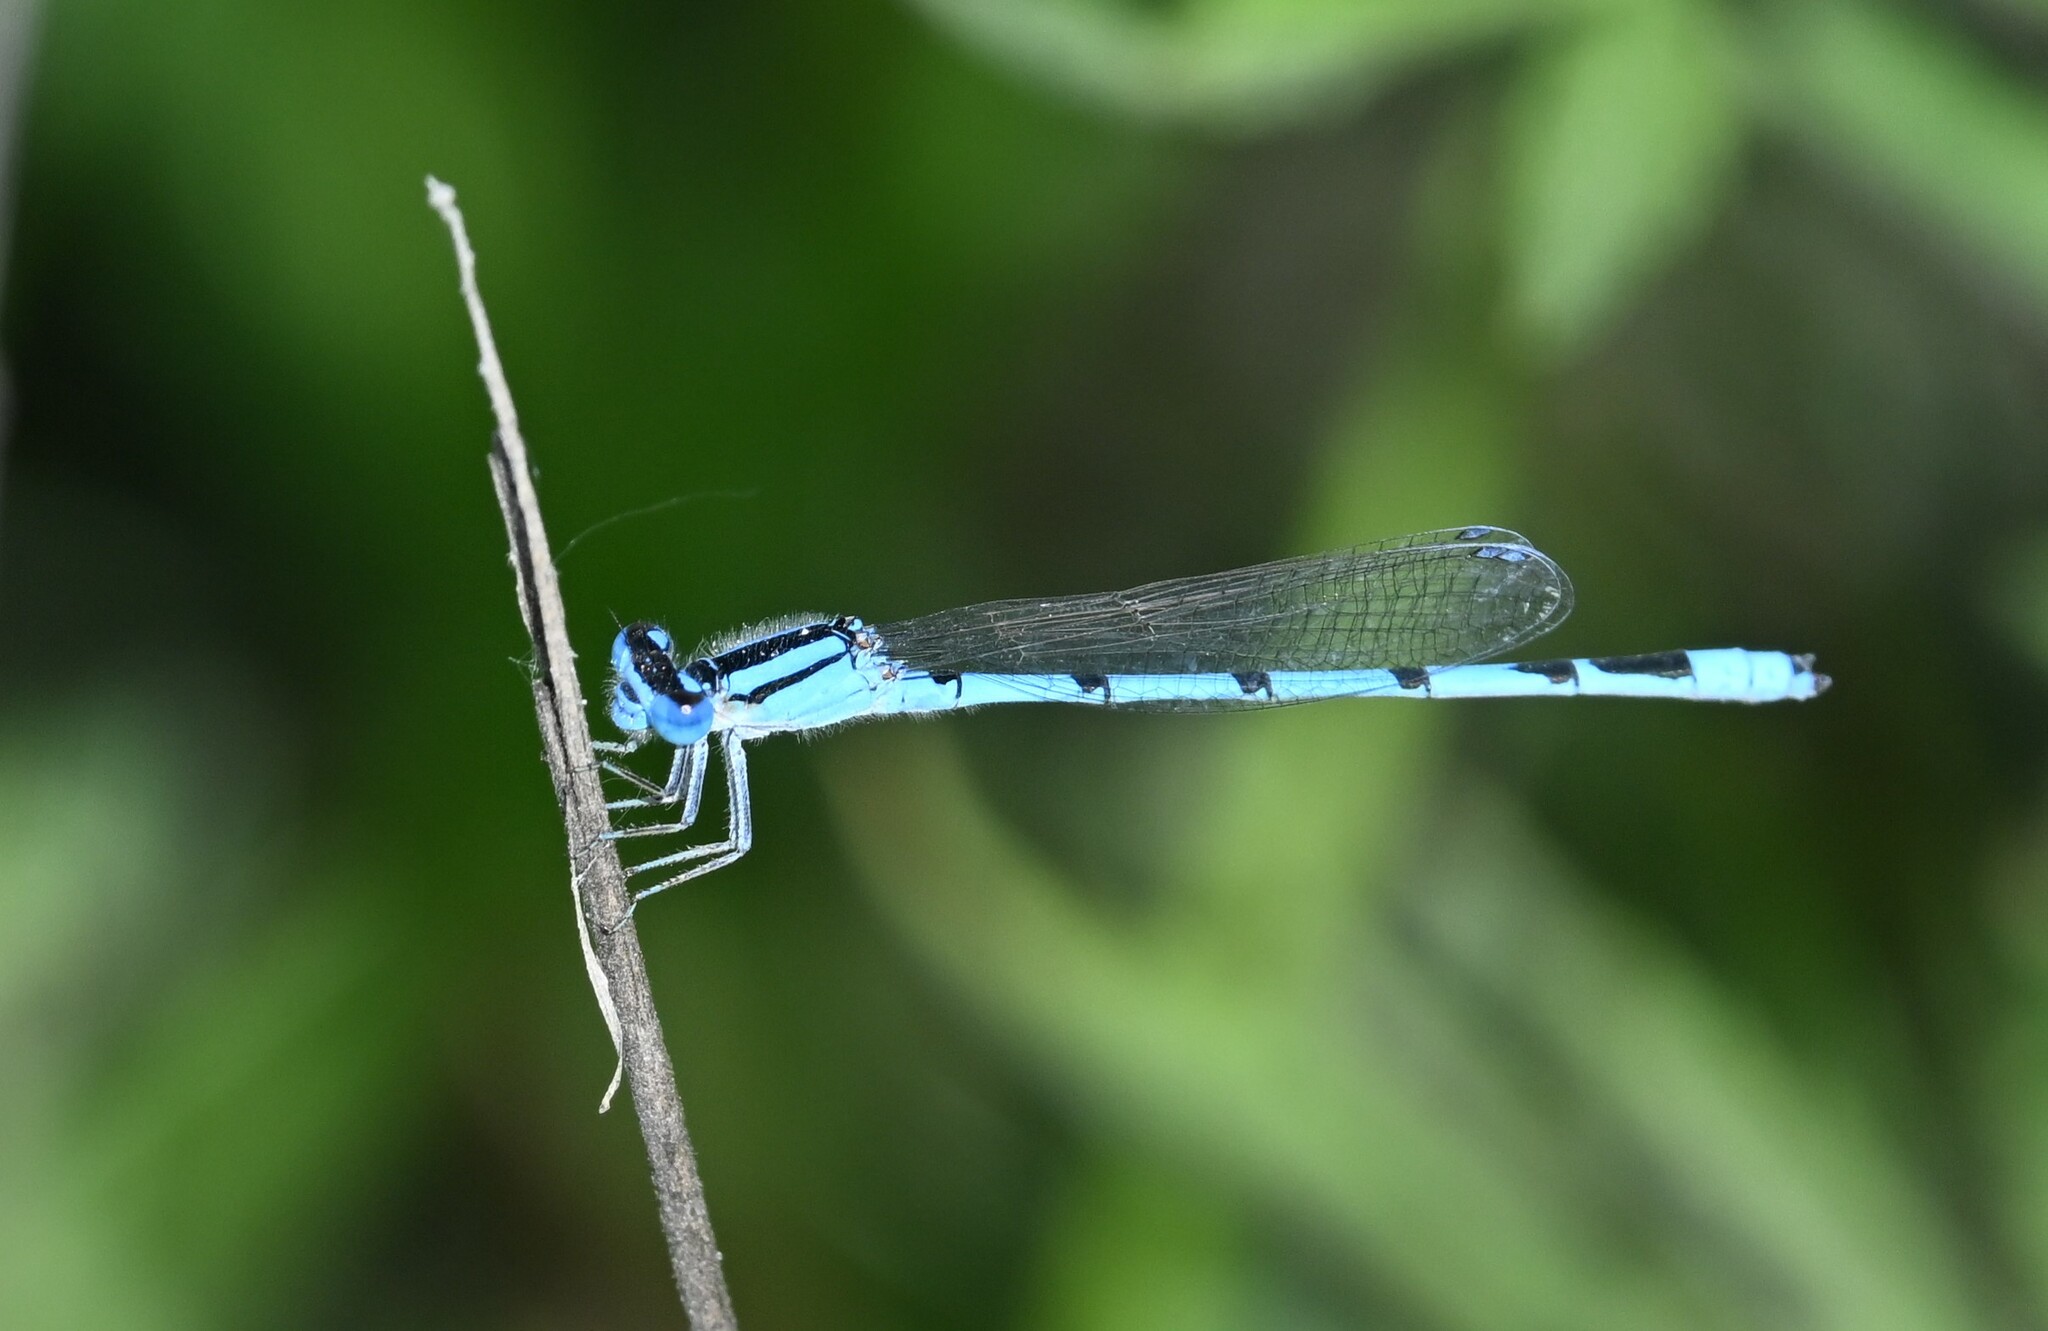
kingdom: Animalia
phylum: Arthropoda
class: Insecta
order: Odonata
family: Coenagrionidae
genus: Enallagma
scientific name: Enallagma civile
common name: Damselfly
